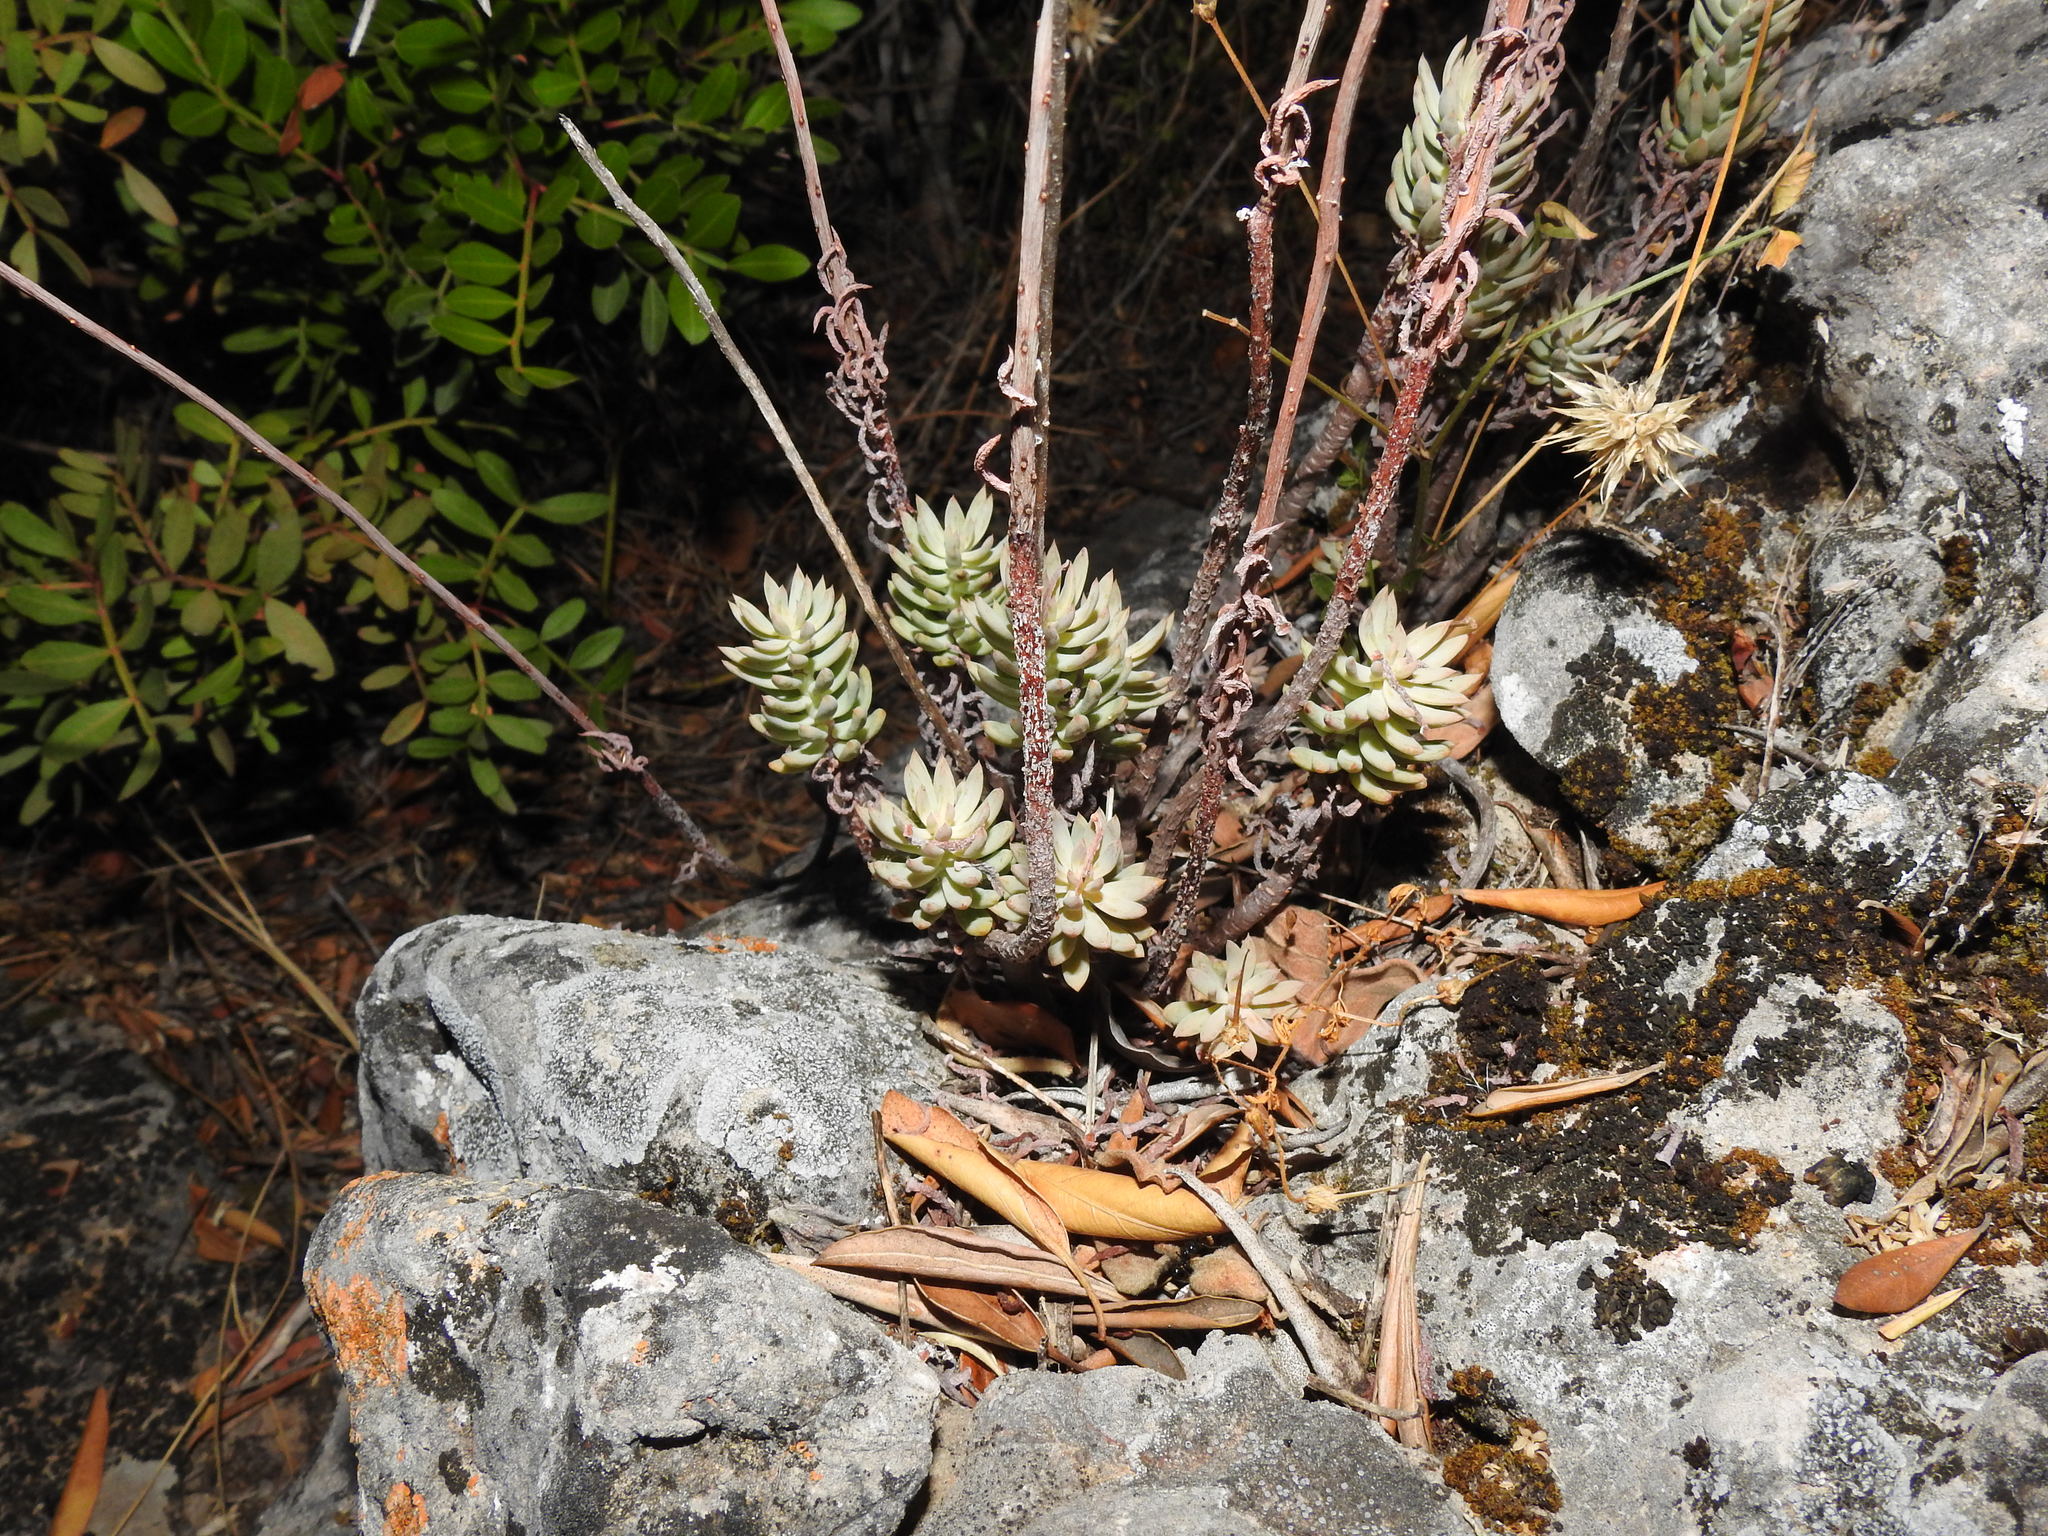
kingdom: Plantae
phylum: Tracheophyta
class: Magnoliopsida
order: Saxifragales
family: Crassulaceae
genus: Petrosedum
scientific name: Petrosedum sediforme
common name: Pale stonecrop
